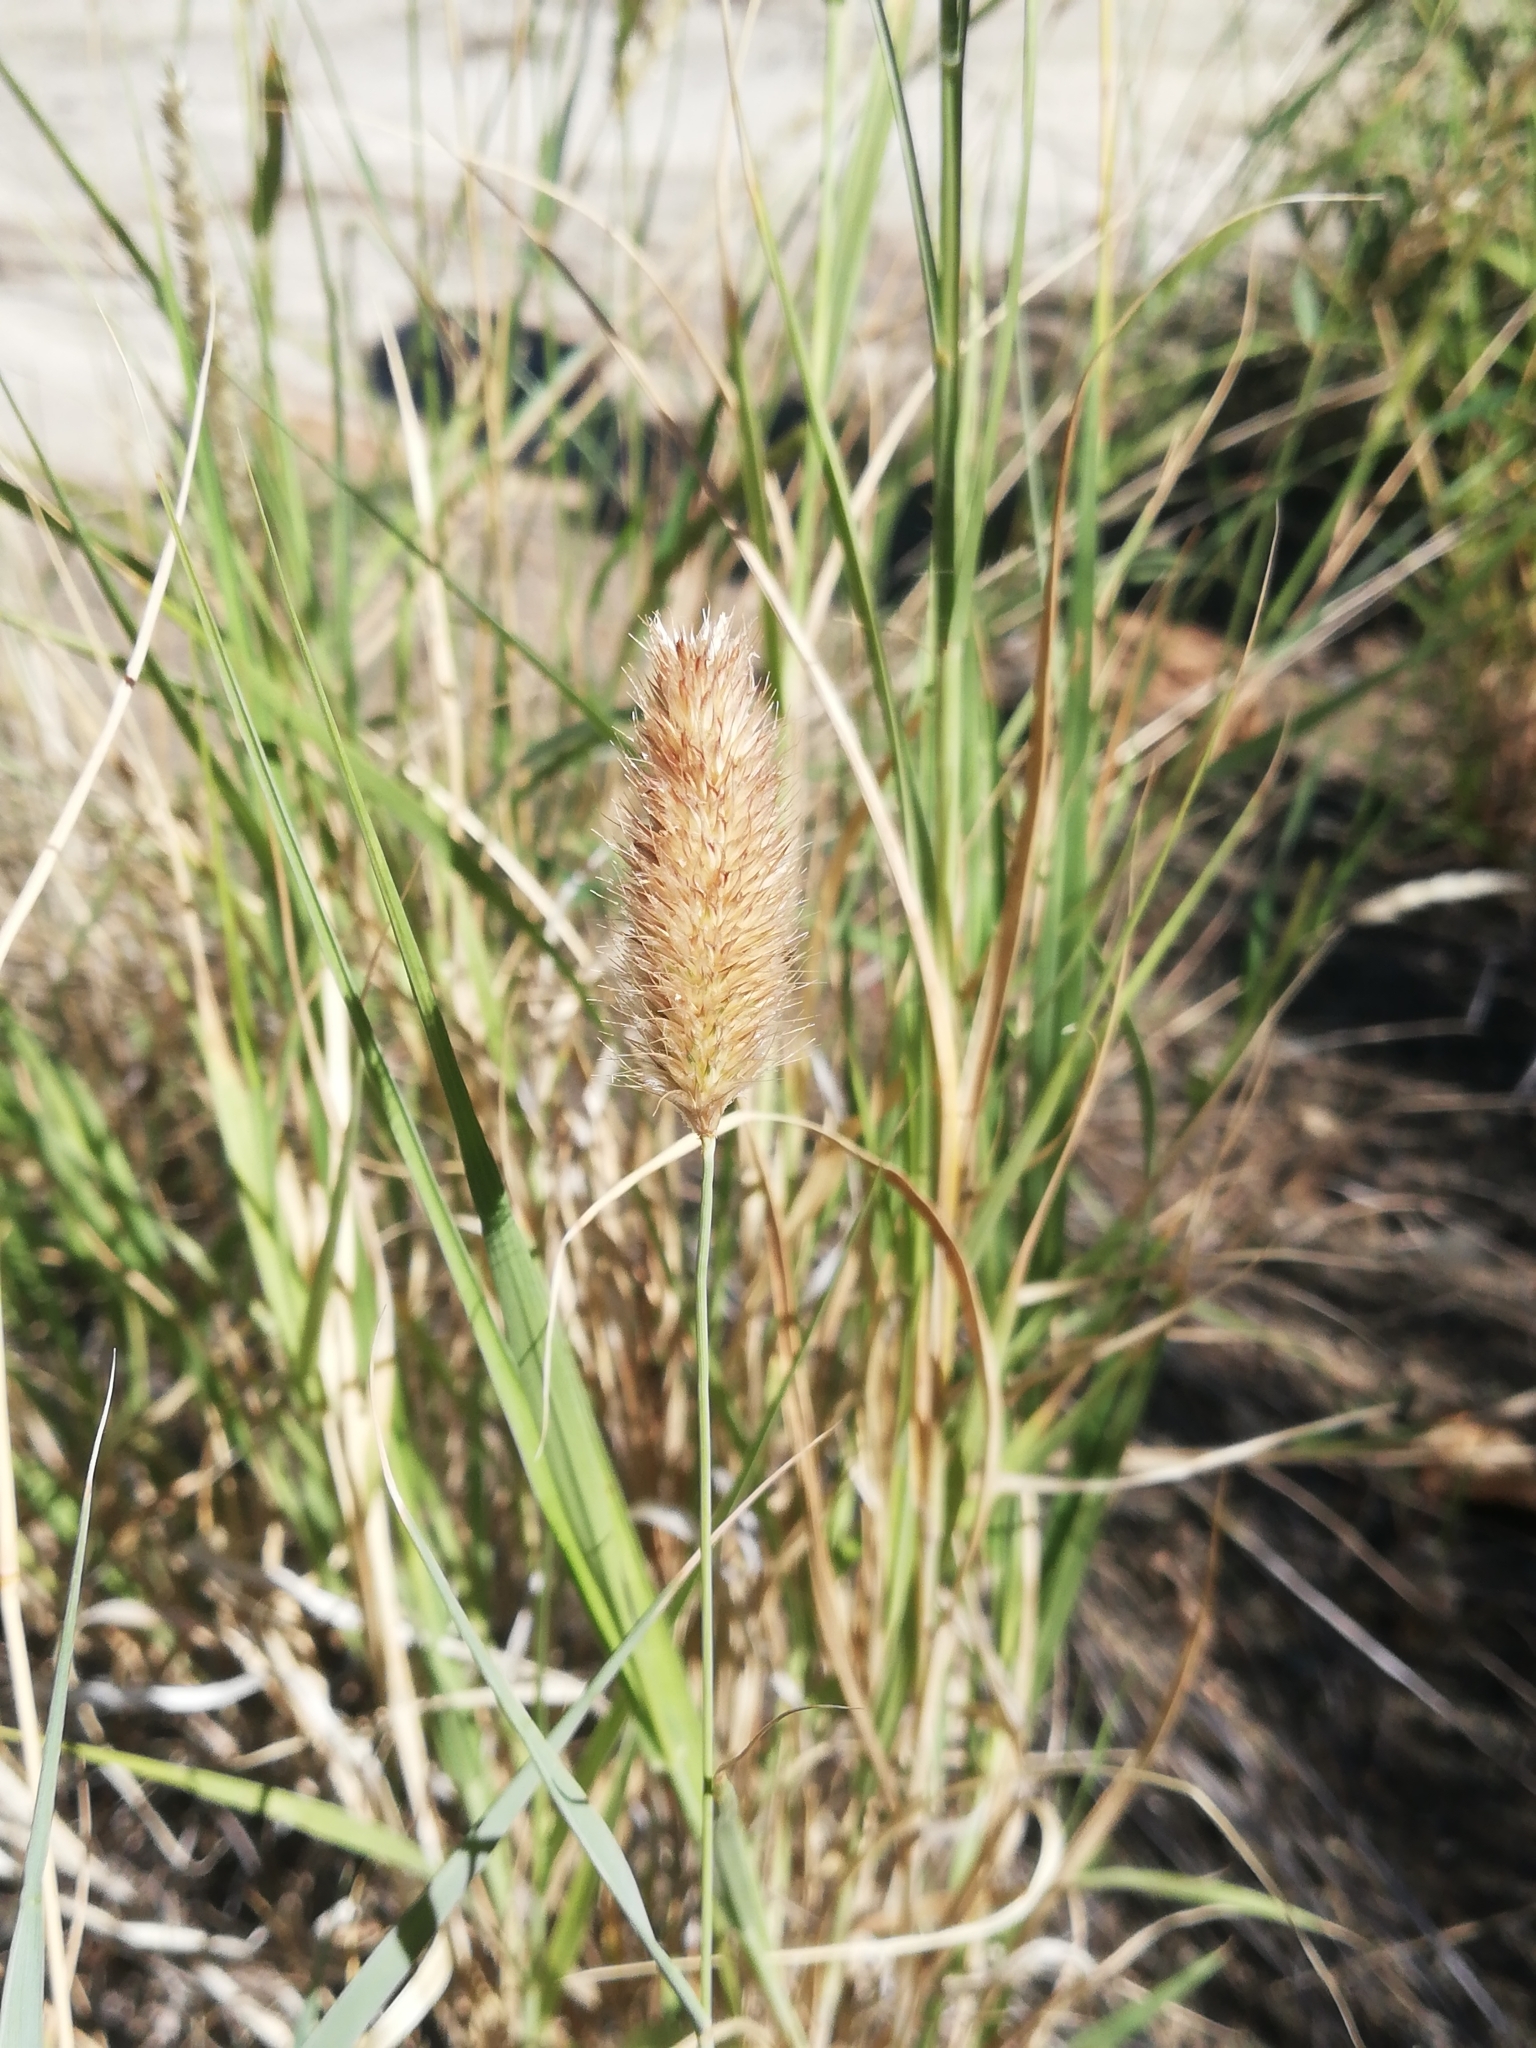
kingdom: Plantae
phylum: Tracheophyta
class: Liliopsida
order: Poales
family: Poaceae
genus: Fingerhuthia
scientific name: Fingerhuthia africana
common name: Zulu fescue
